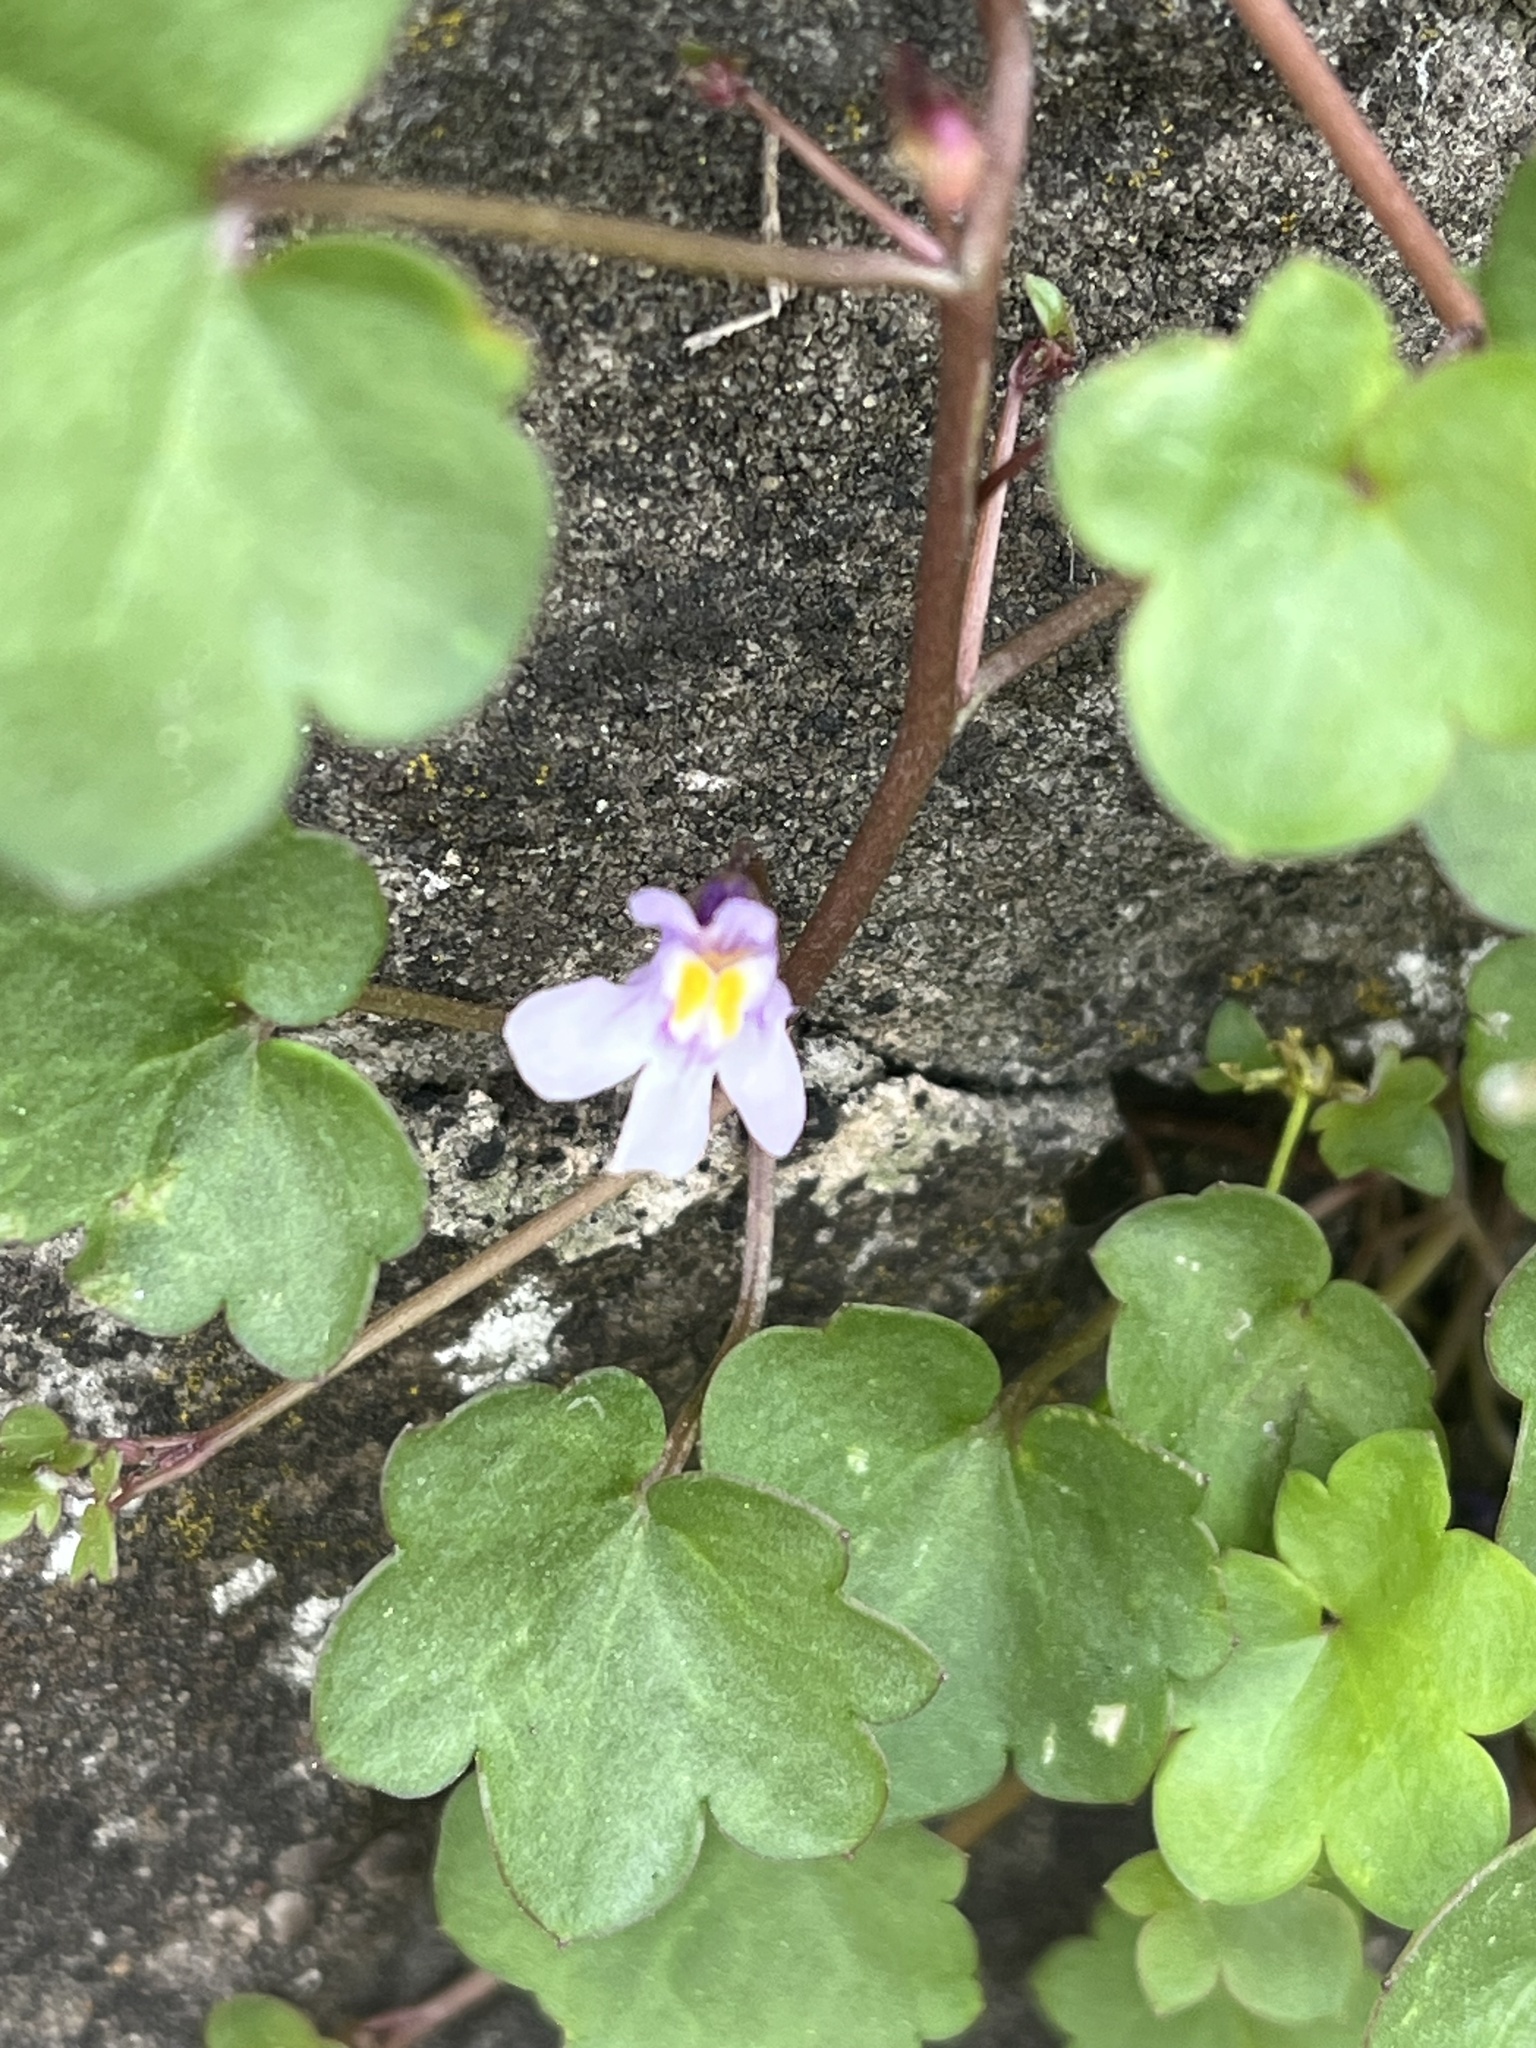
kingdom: Plantae
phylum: Tracheophyta
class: Magnoliopsida
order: Lamiales
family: Plantaginaceae
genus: Cymbalaria
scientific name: Cymbalaria muralis
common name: Ivy-leaved toadflax
